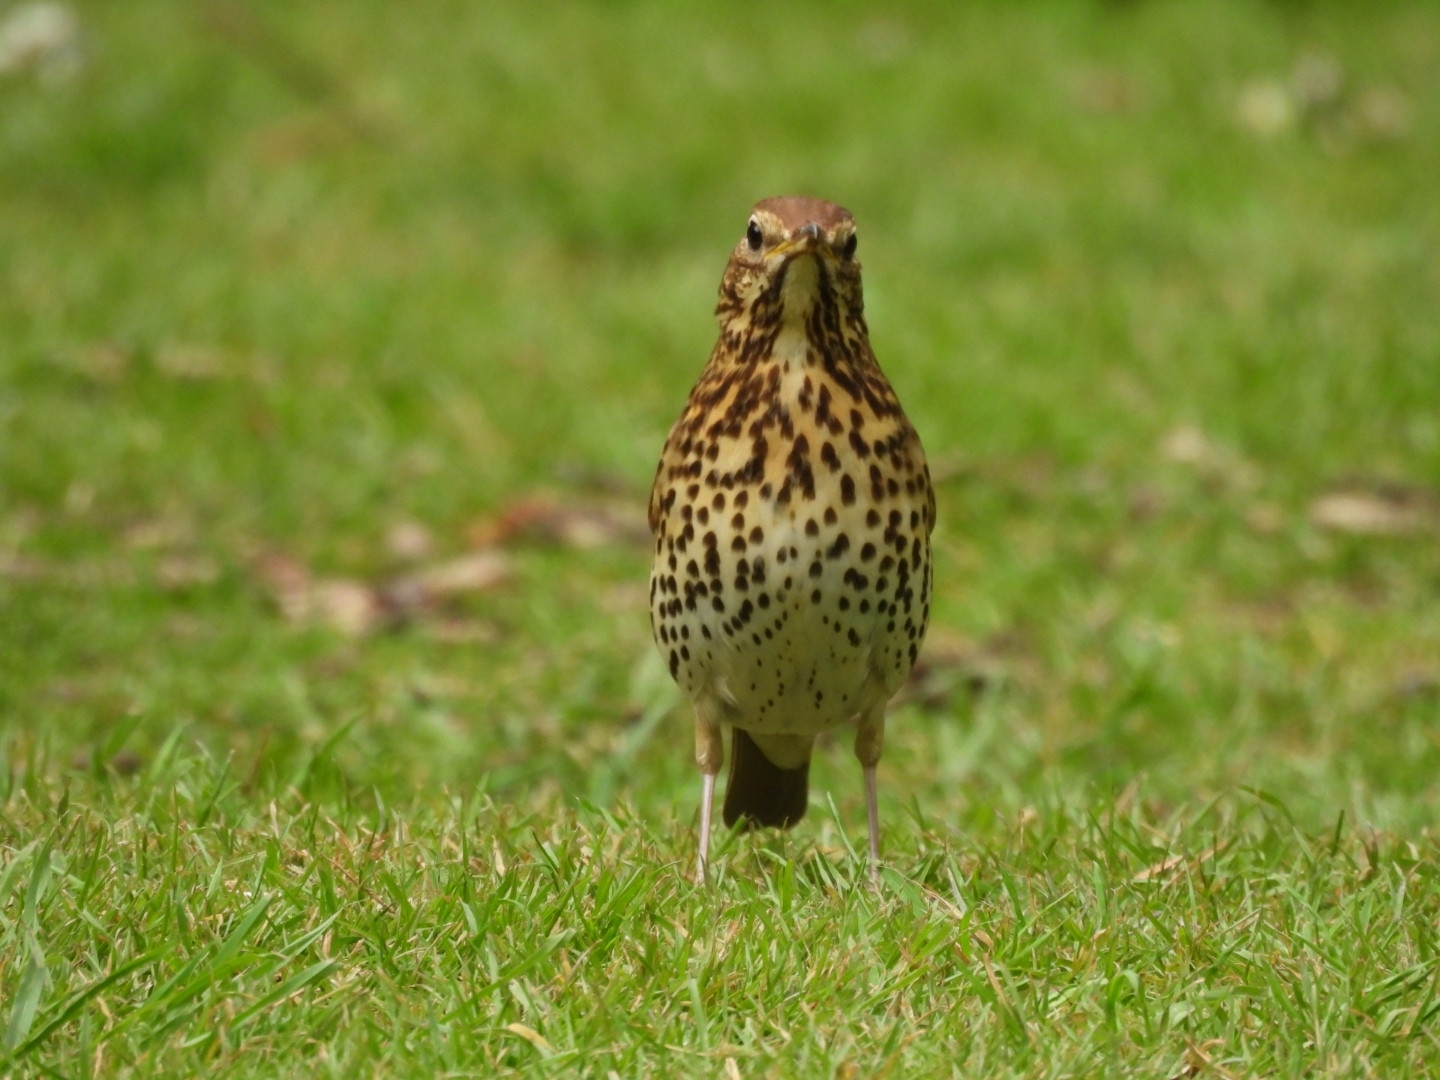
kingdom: Animalia
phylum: Chordata
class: Aves
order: Passeriformes
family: Turdidae
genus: Turdus
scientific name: Turdus philomelos
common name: Song thrush
